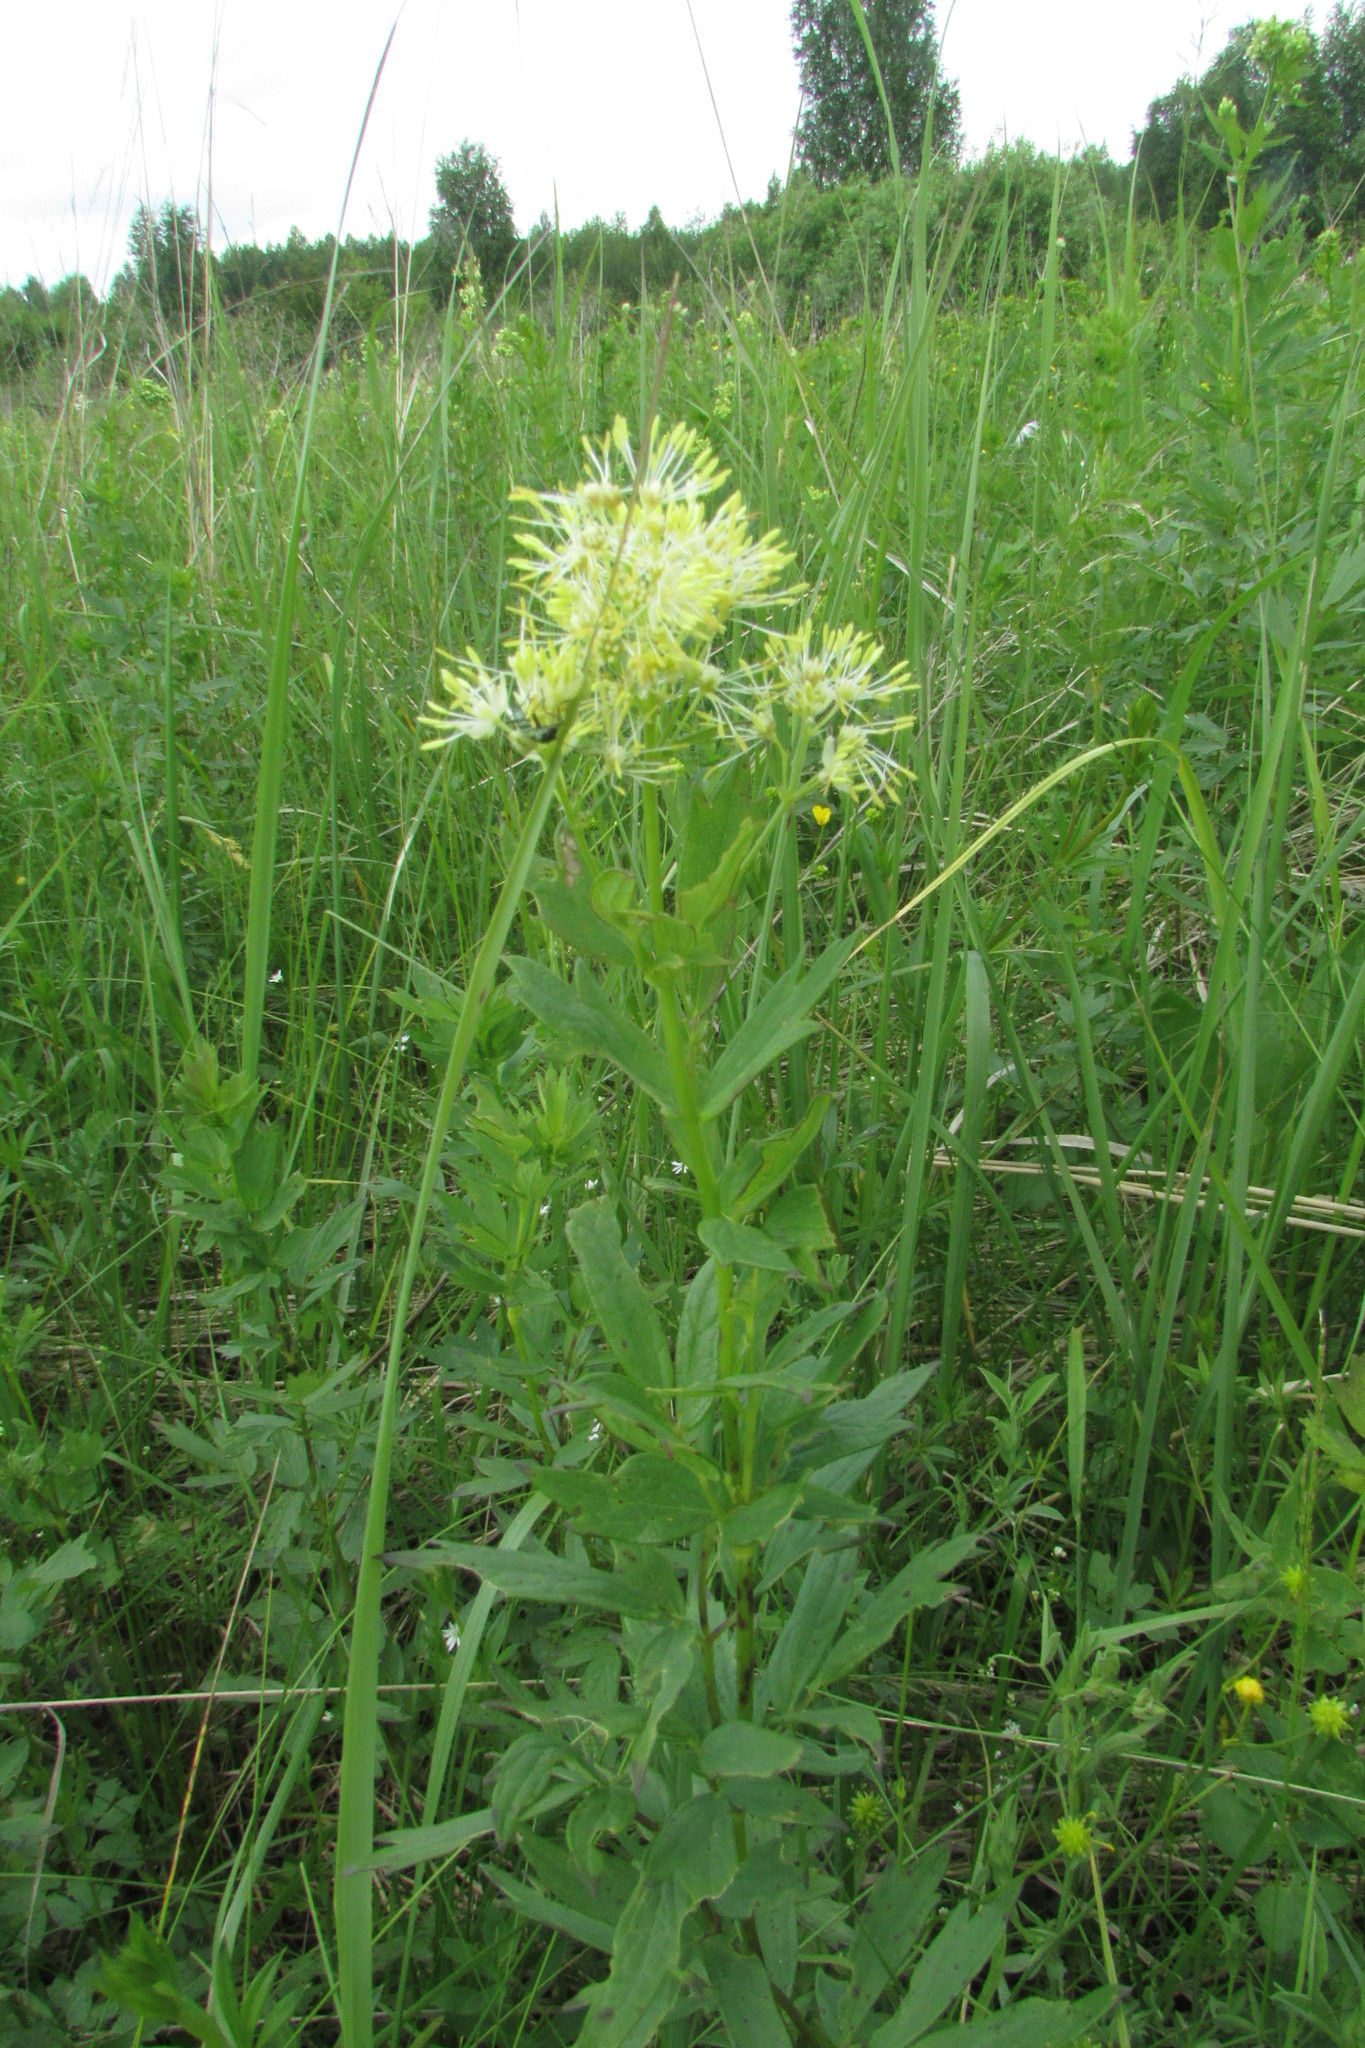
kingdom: Plantae
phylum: Tracheophyta
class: Magnoliopsida
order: Ranunculales
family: Ranunculaceae
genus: Thalictrum
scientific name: Thalictrum flavum
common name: Common meadow-rue
